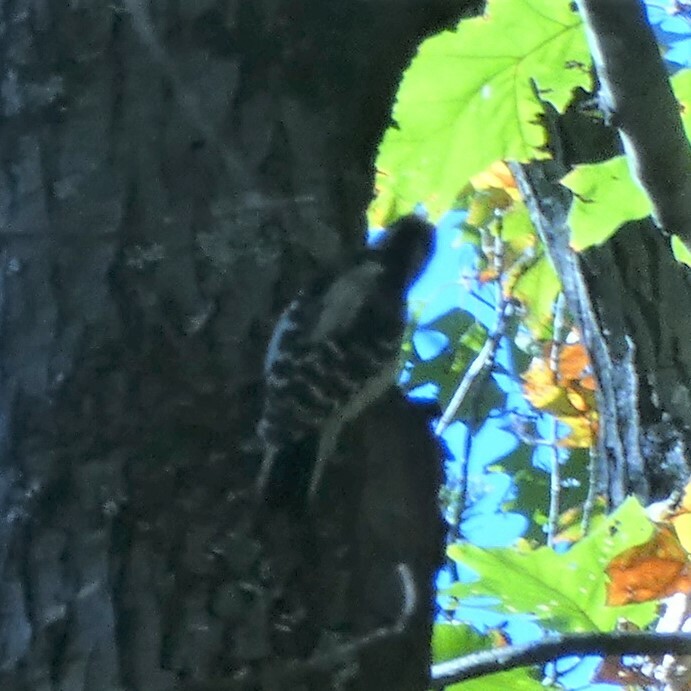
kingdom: Animalia
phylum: Chordata
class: Aves
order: Piciformes
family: Picidae
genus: Dryobates
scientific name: Dryobates pubescens
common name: Downy woodpecker
